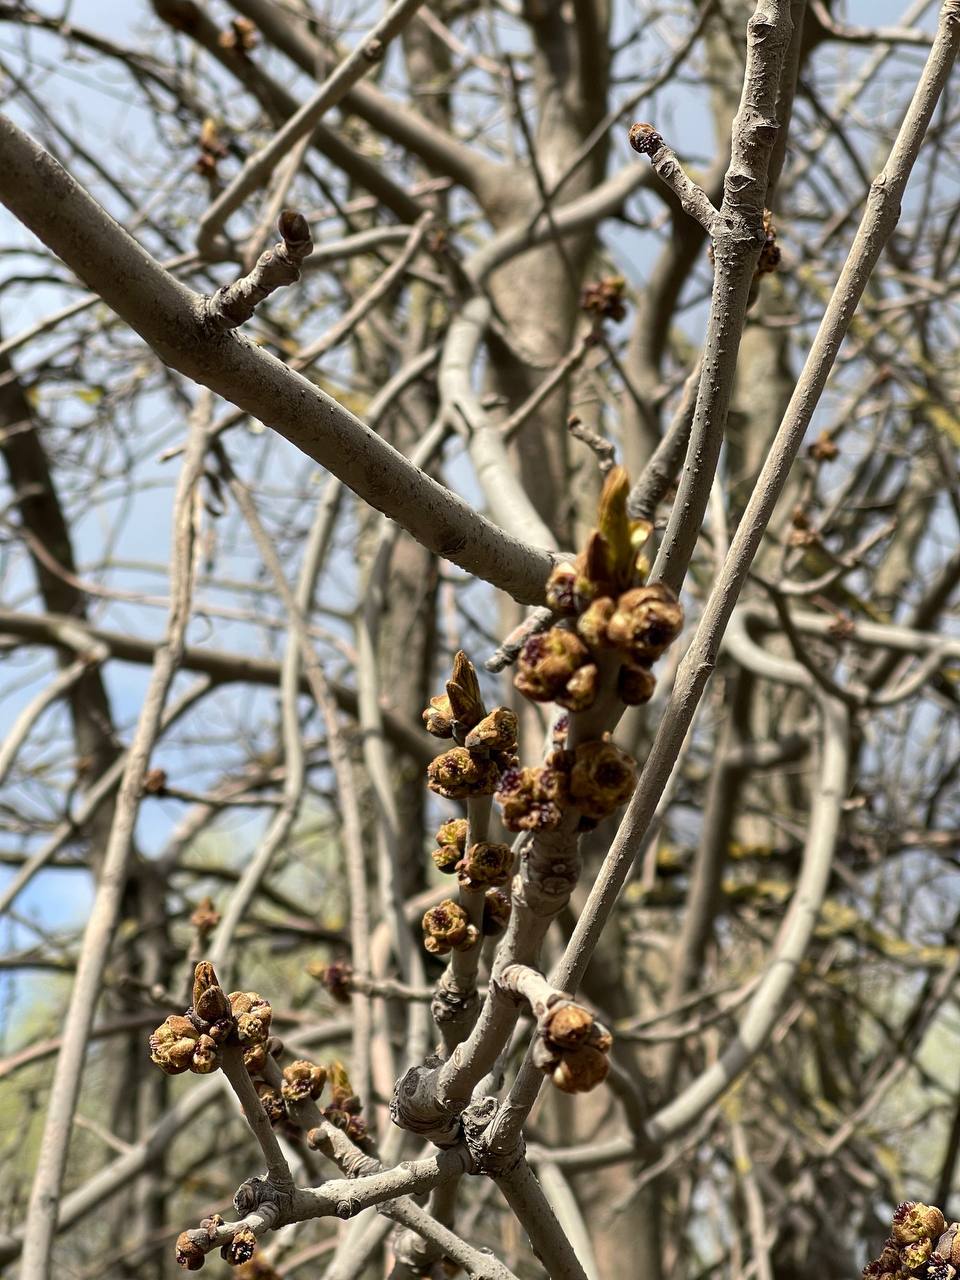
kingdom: Plantae
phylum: Tracheophyta
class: Magnoliopsida
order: Lamiales
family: Oleaceae
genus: Fraxinus
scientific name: Fraxinus pennsylvanica
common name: Green ash
